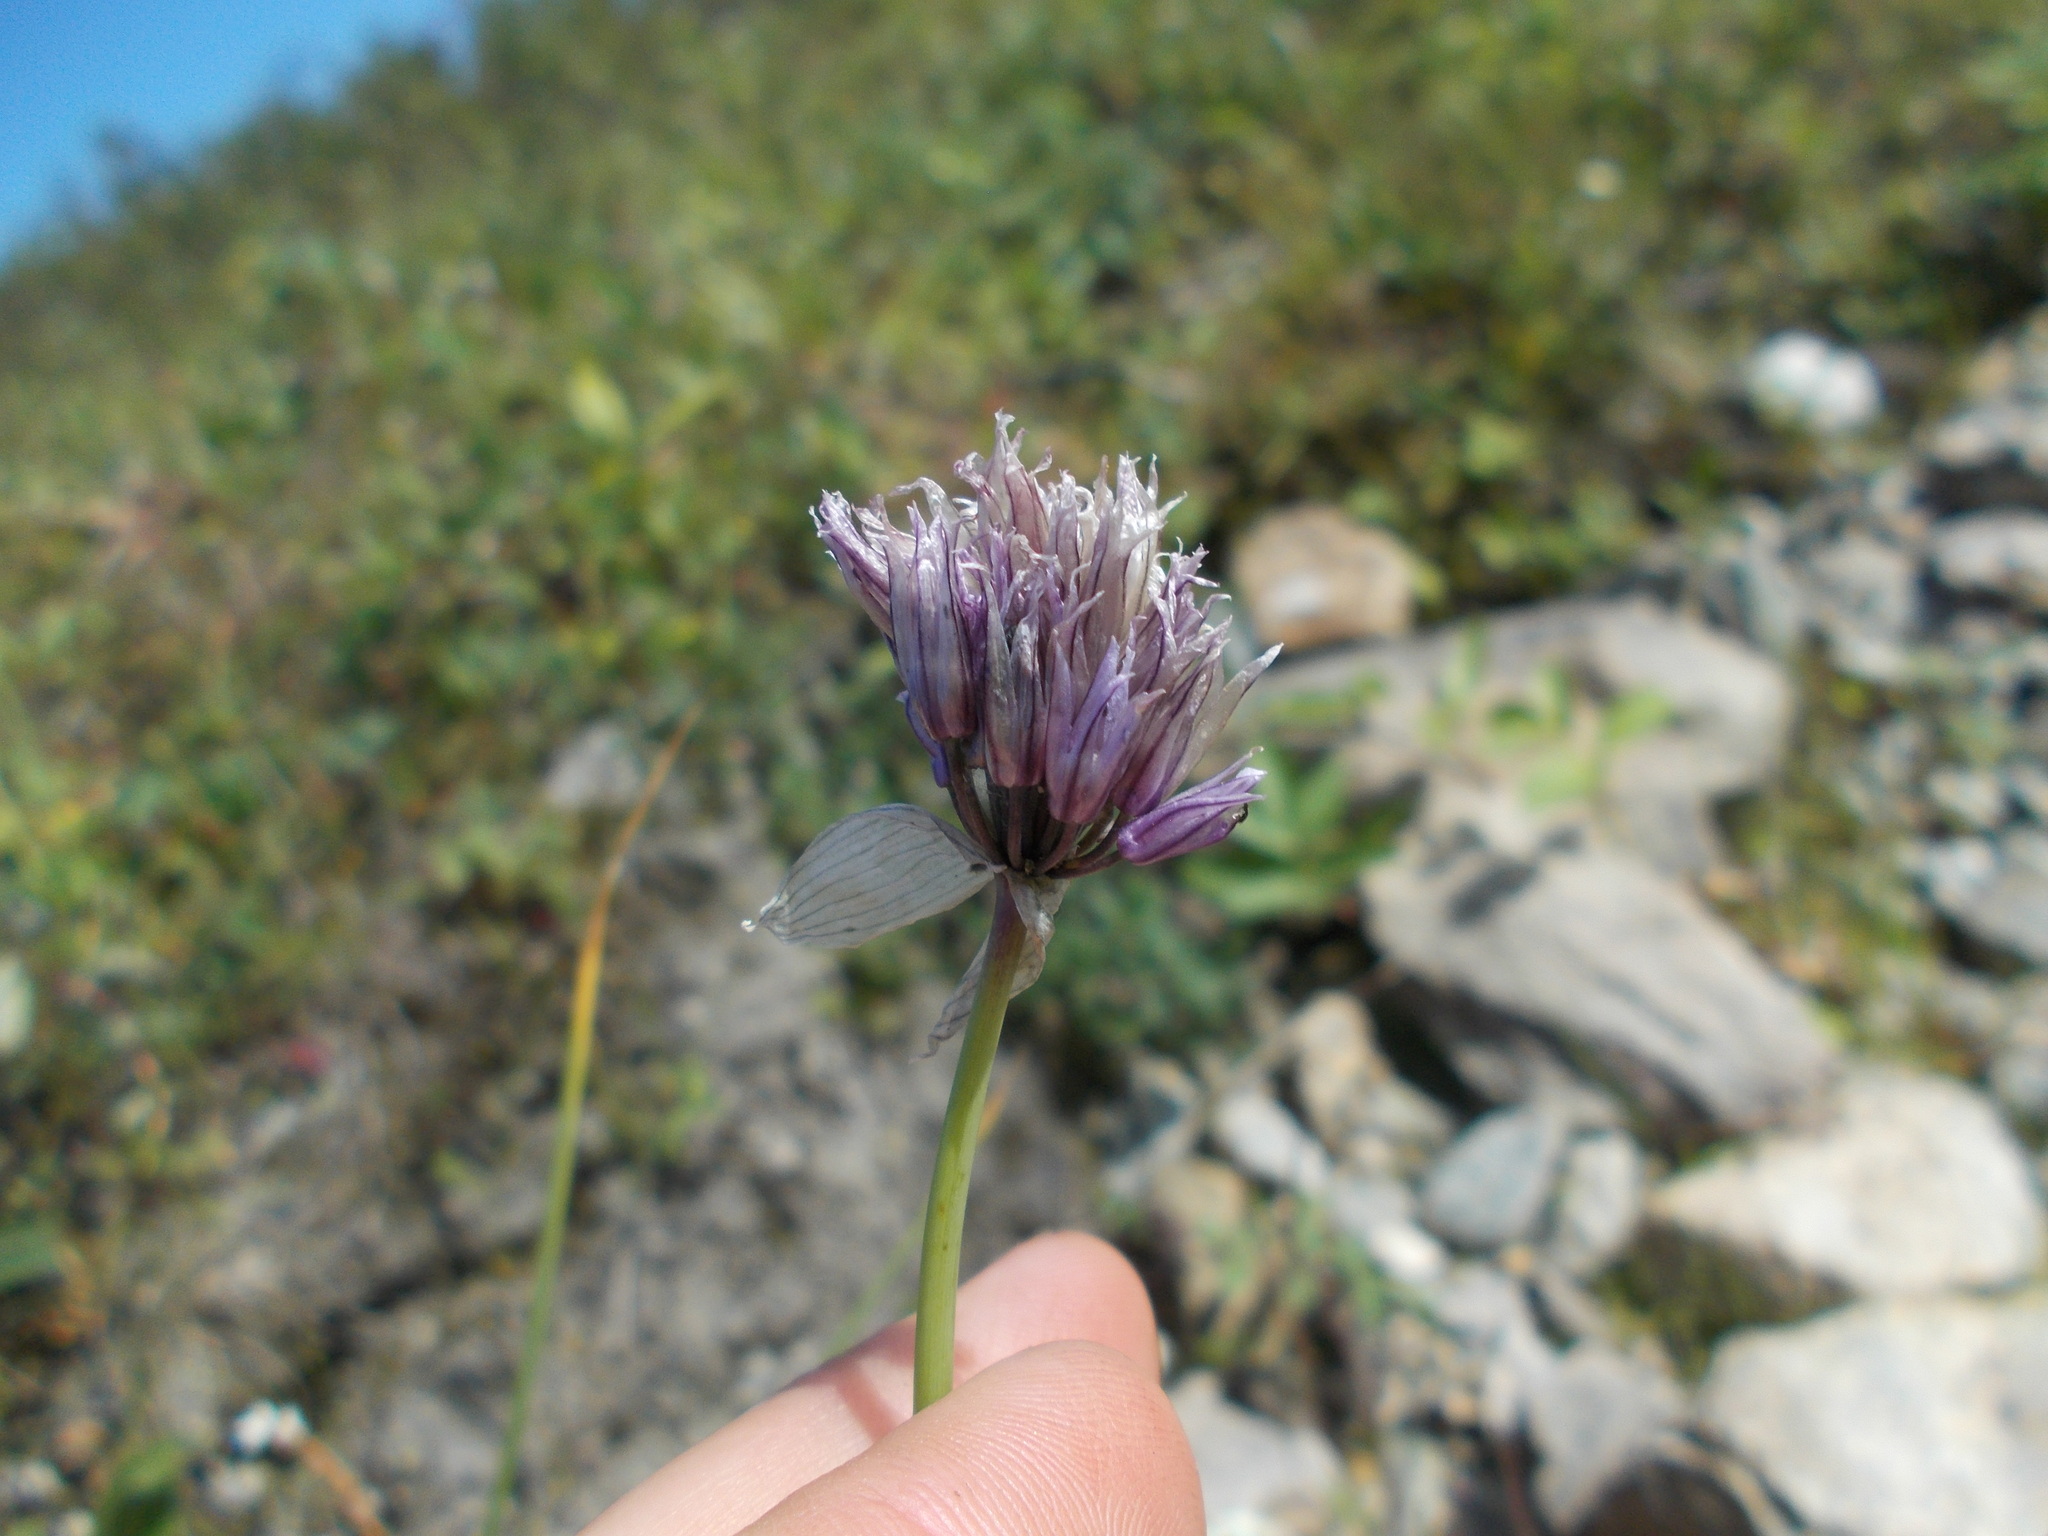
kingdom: Plantae
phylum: Tracheophyta
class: Liliopsida
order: Asparagales
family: Amaryllidaceae
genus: Allium
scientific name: Allium schoenoprasum
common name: Chives
